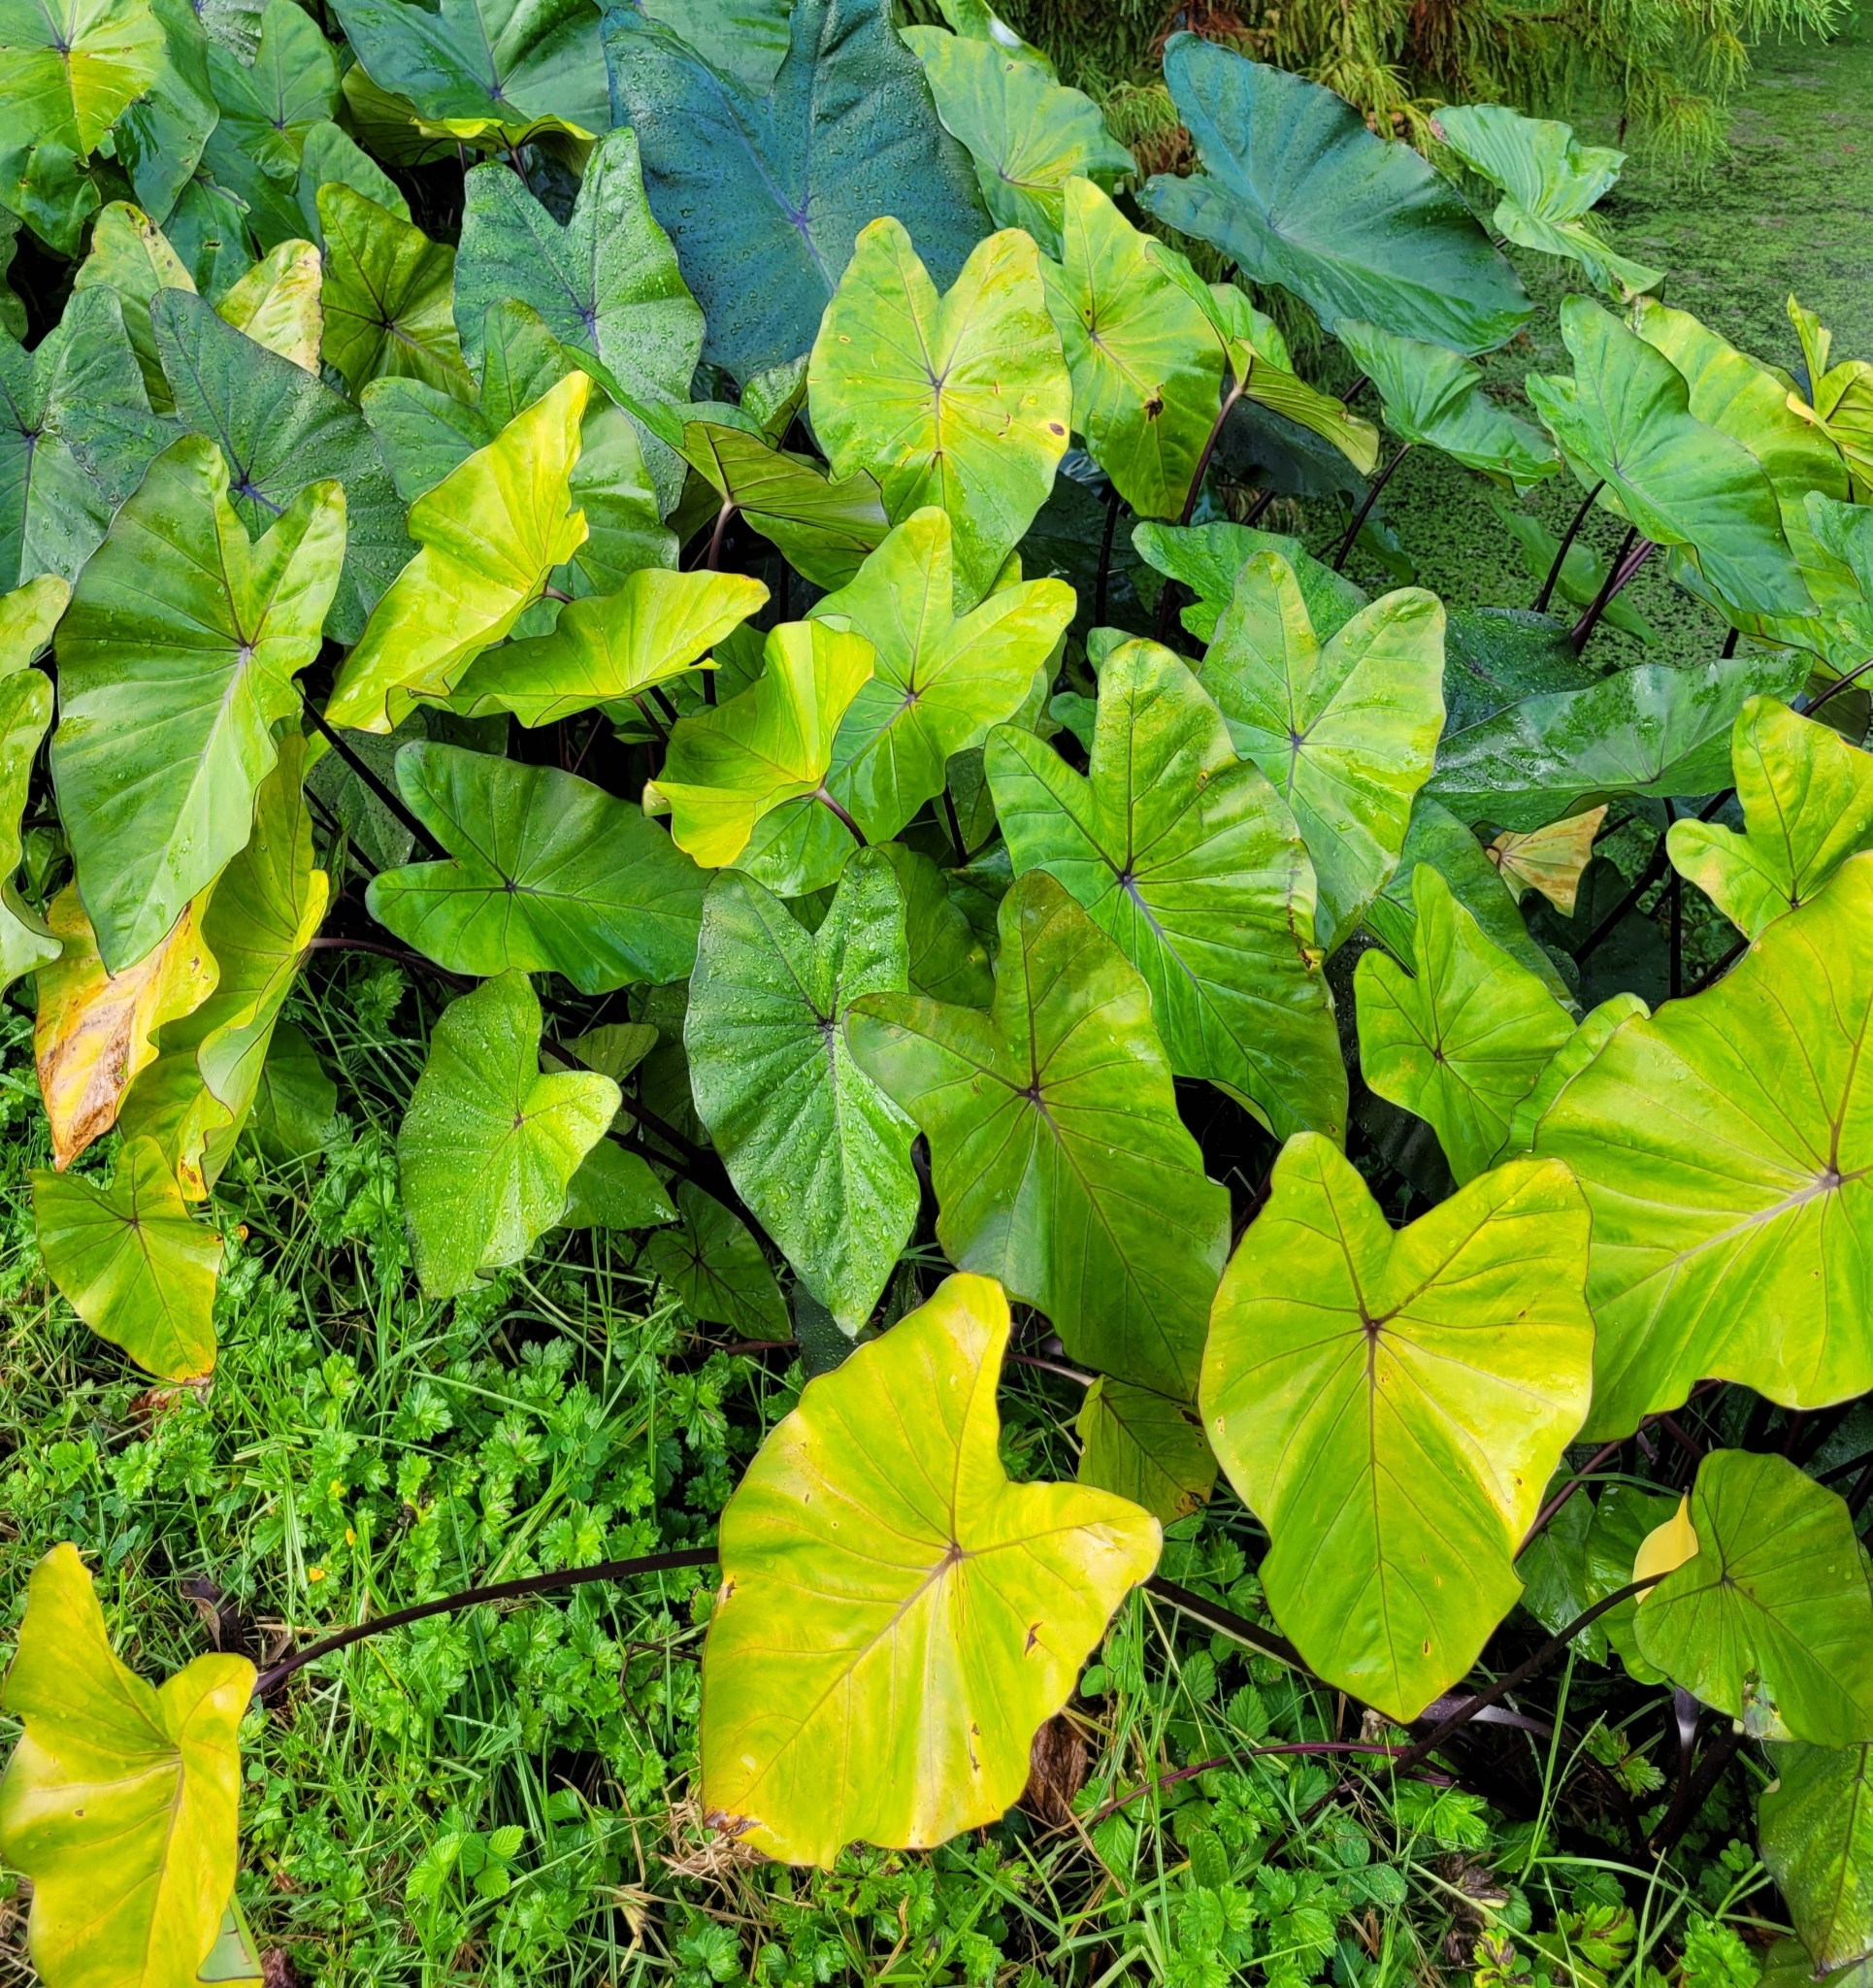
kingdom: Plantae
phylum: Tracheophyta
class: Liliopsida
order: Alismatales
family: Araceae
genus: Colocasia
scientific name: Colocasia fontanesii
